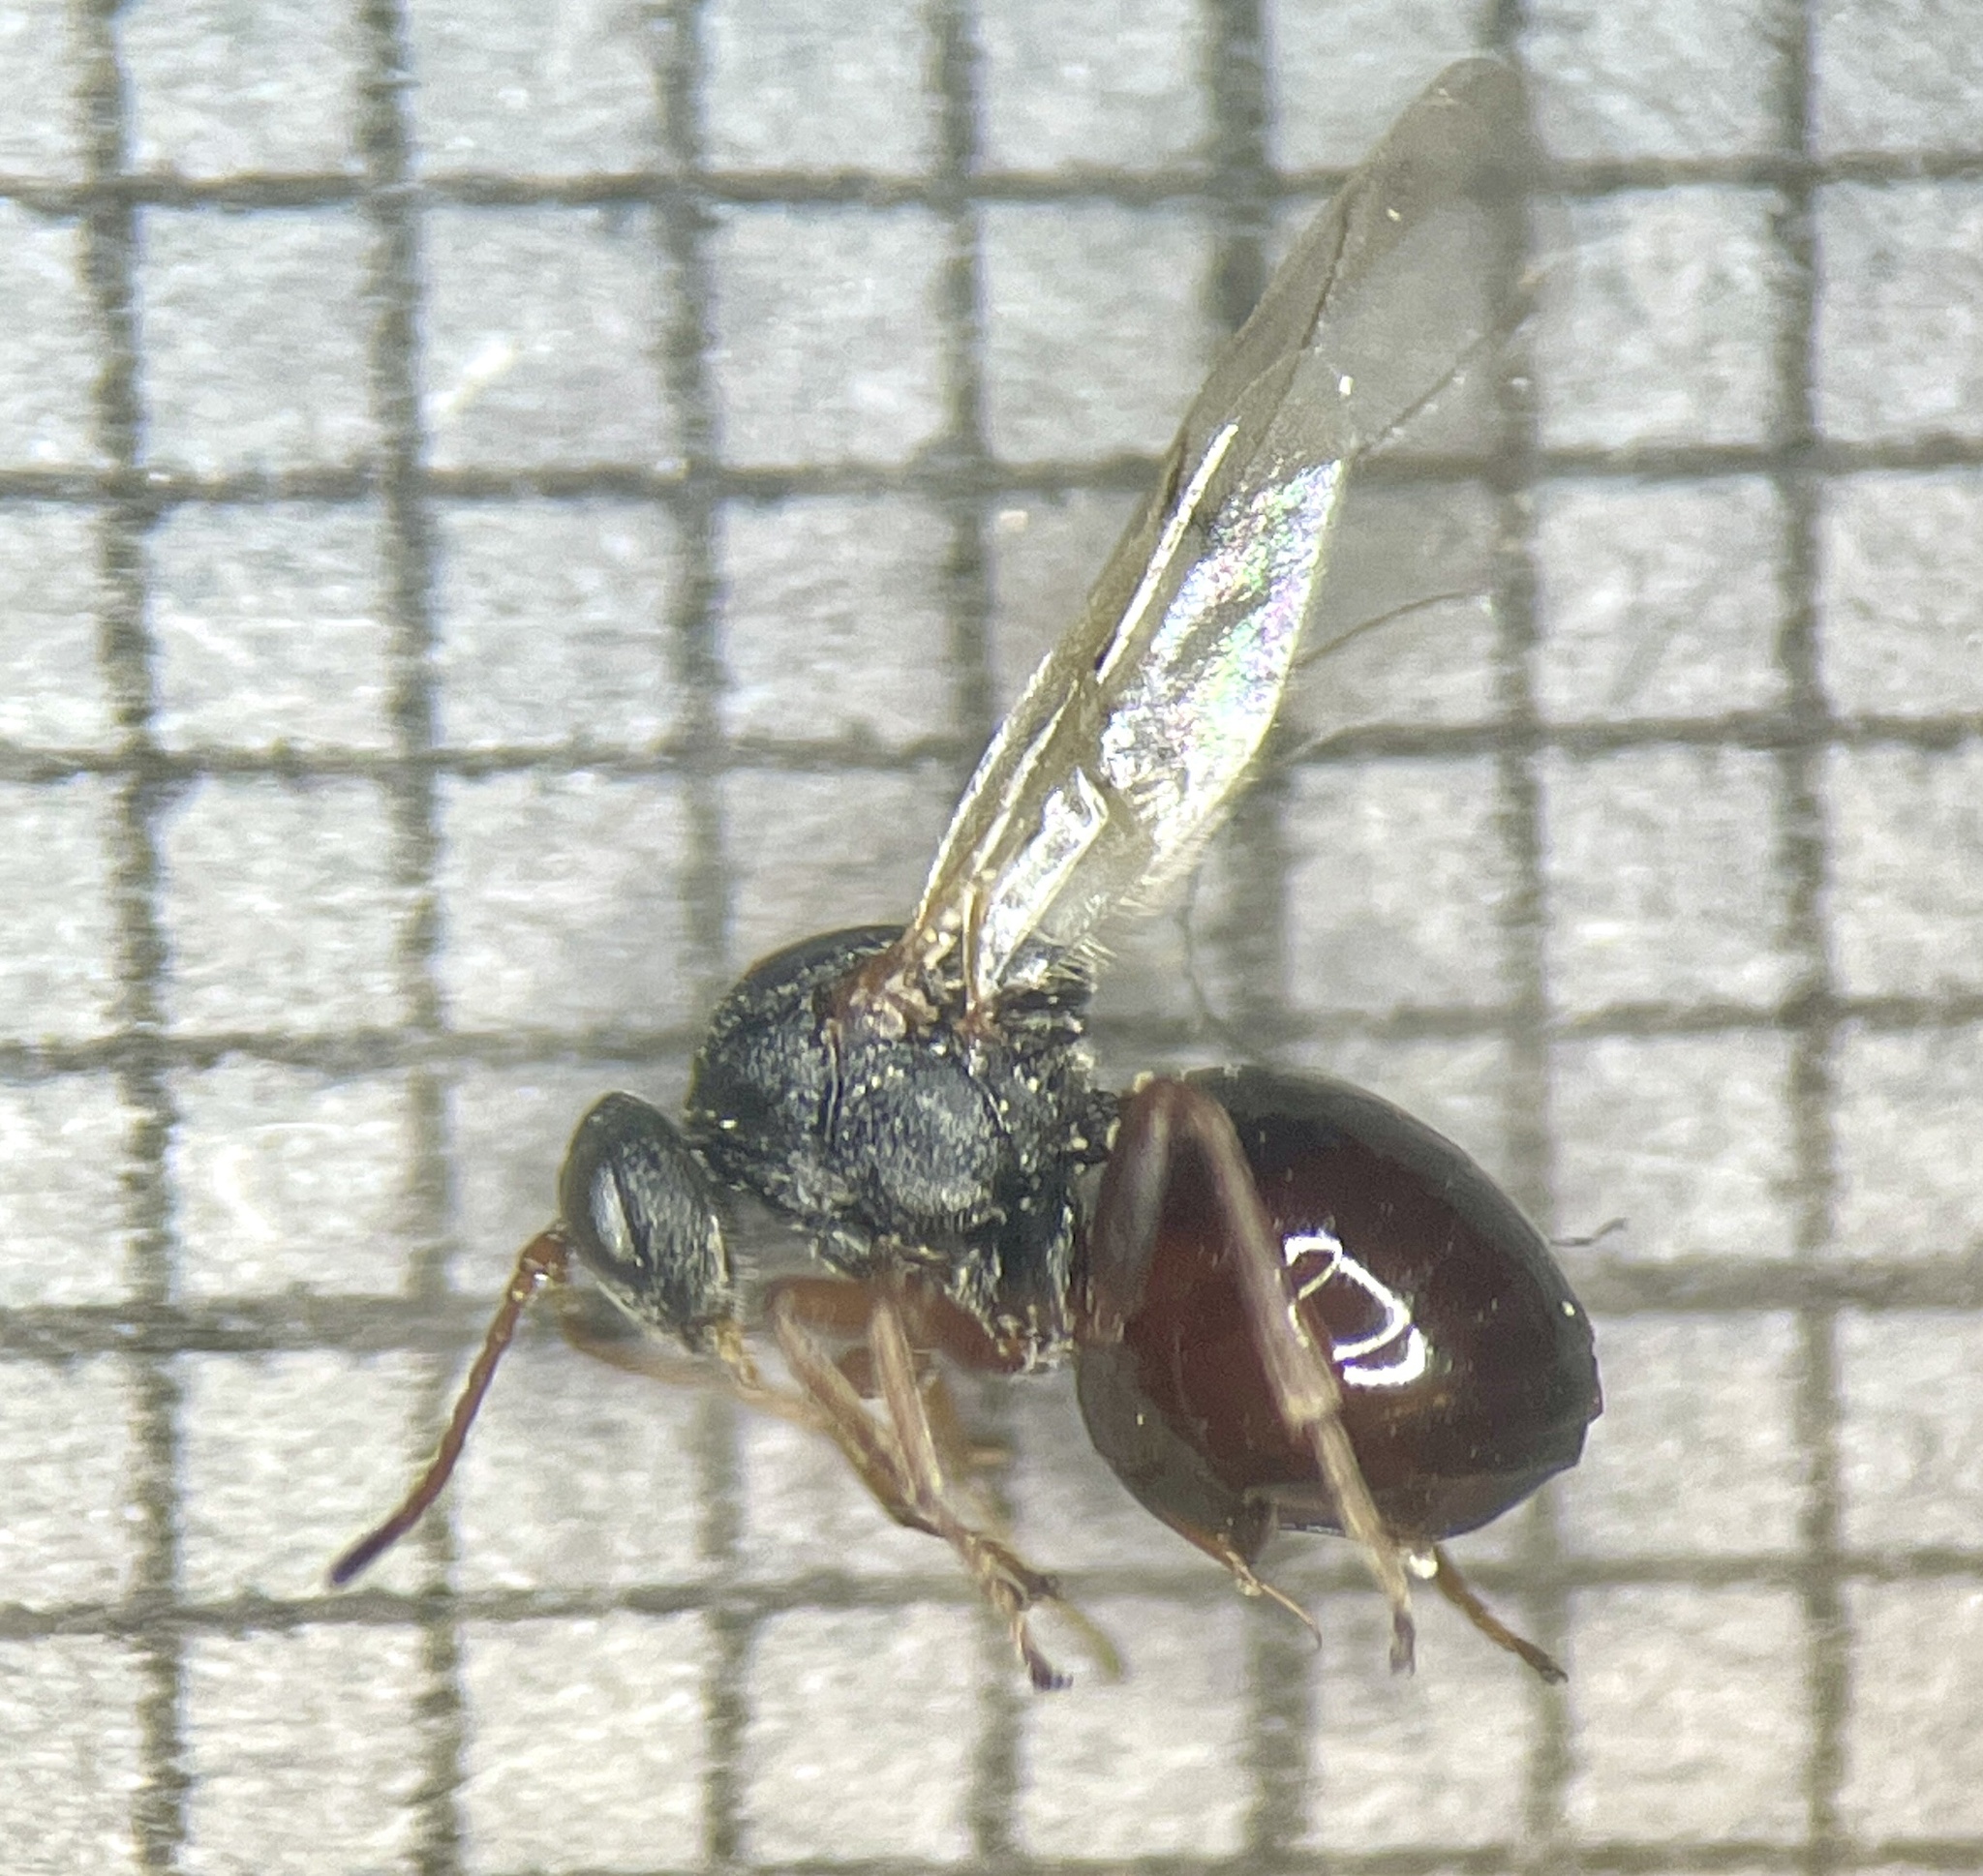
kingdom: Animalia
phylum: Arthropoda
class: Insecta
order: Hymenoptera
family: Cynipidae
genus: Callirhytis
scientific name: Callirhytis
